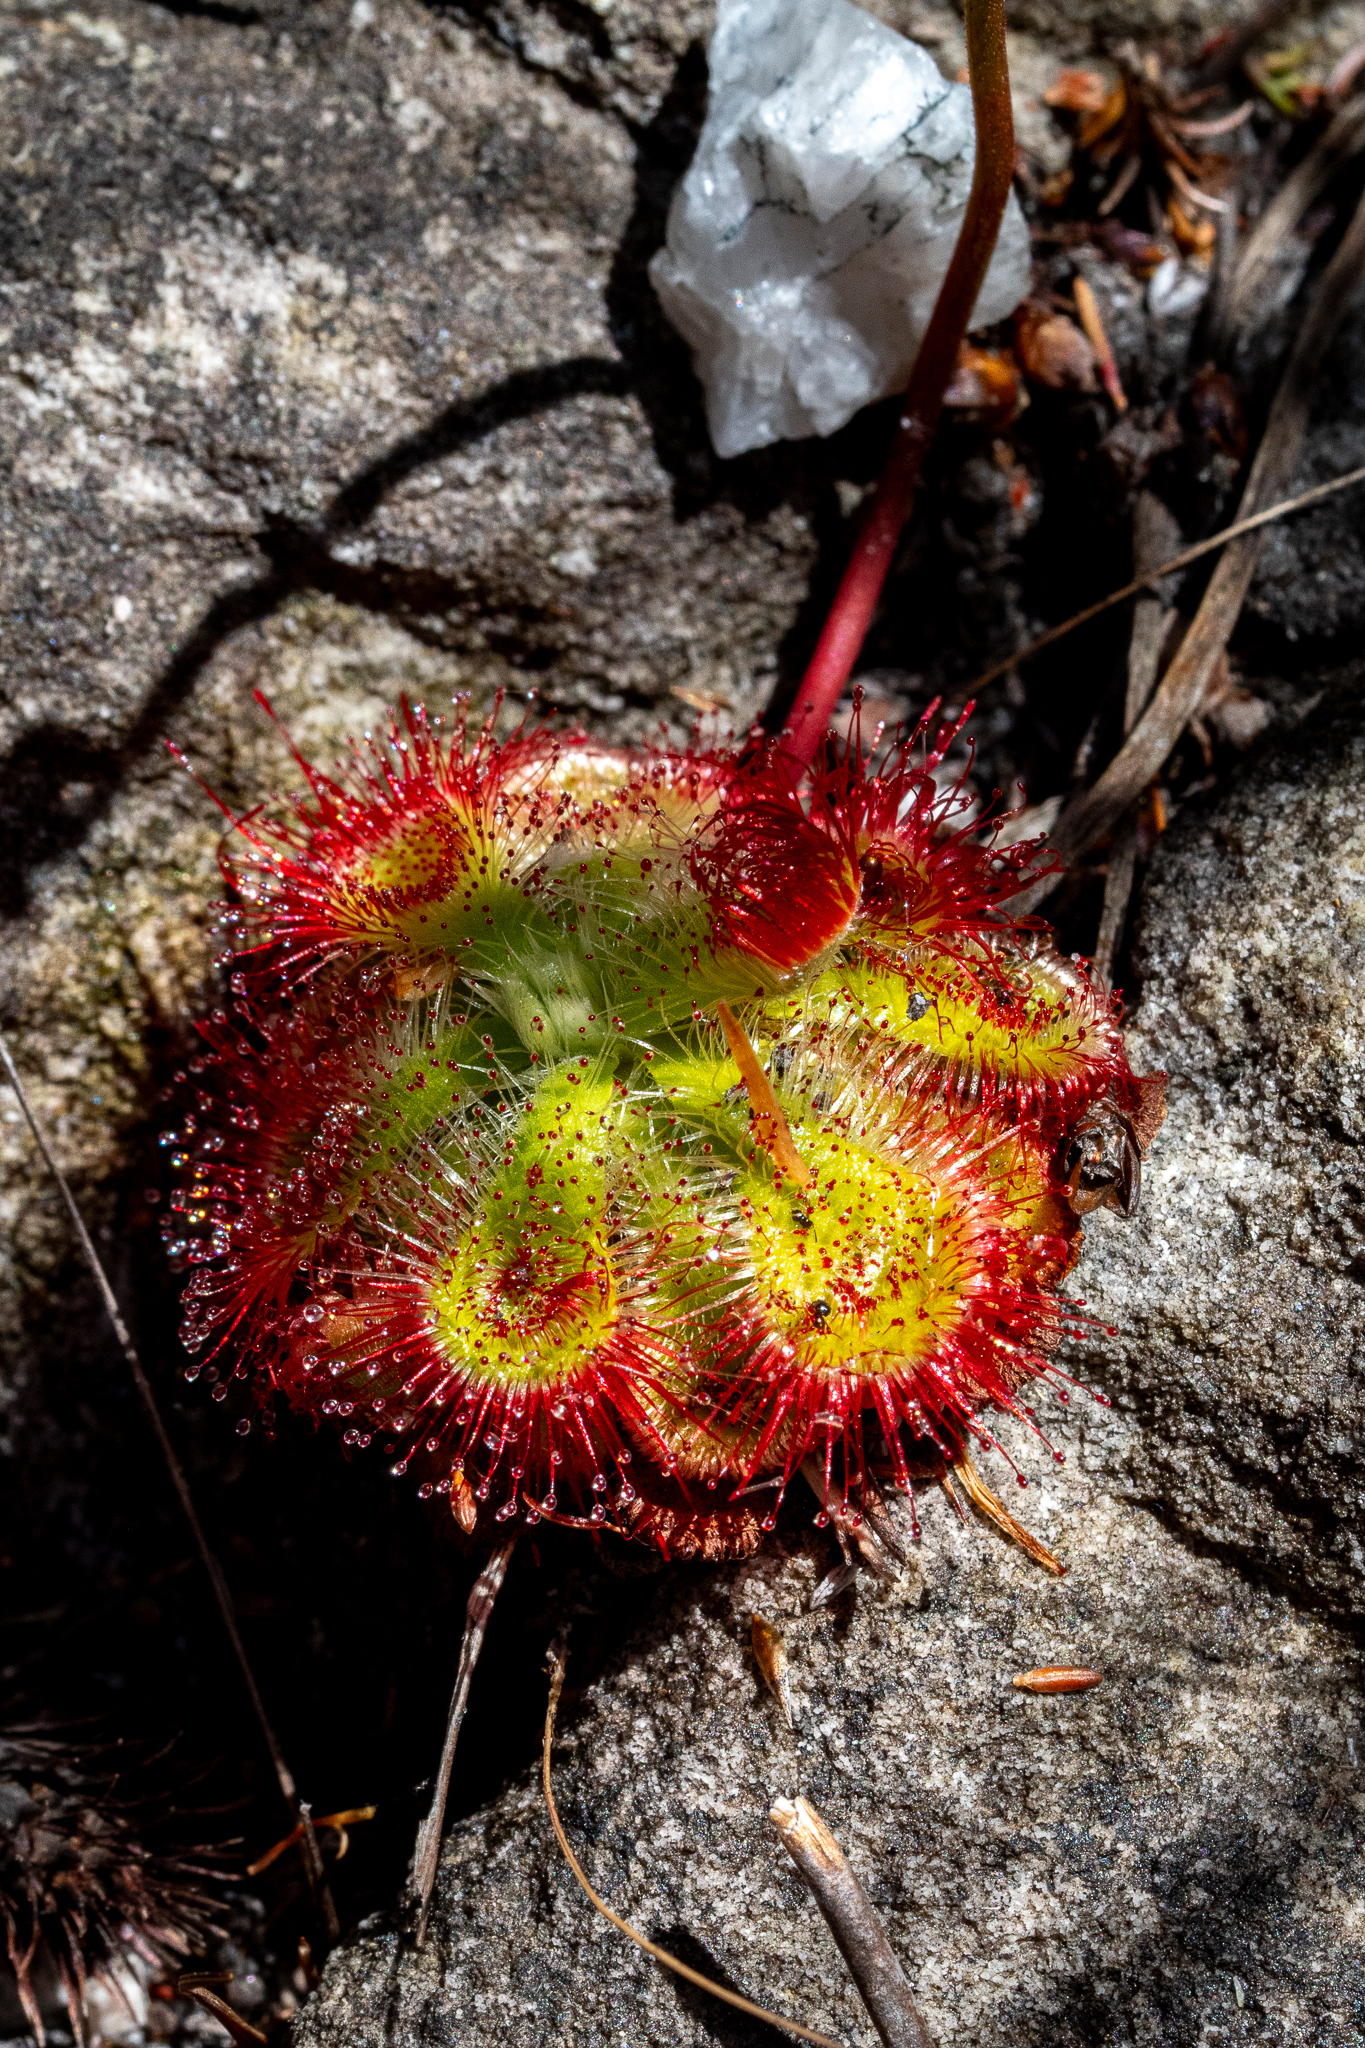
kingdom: Plantae
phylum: Tracheophyta
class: Magnoliopsida
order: Caryophyllales
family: Droseraceae
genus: Drosera
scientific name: Drosera xerophila
